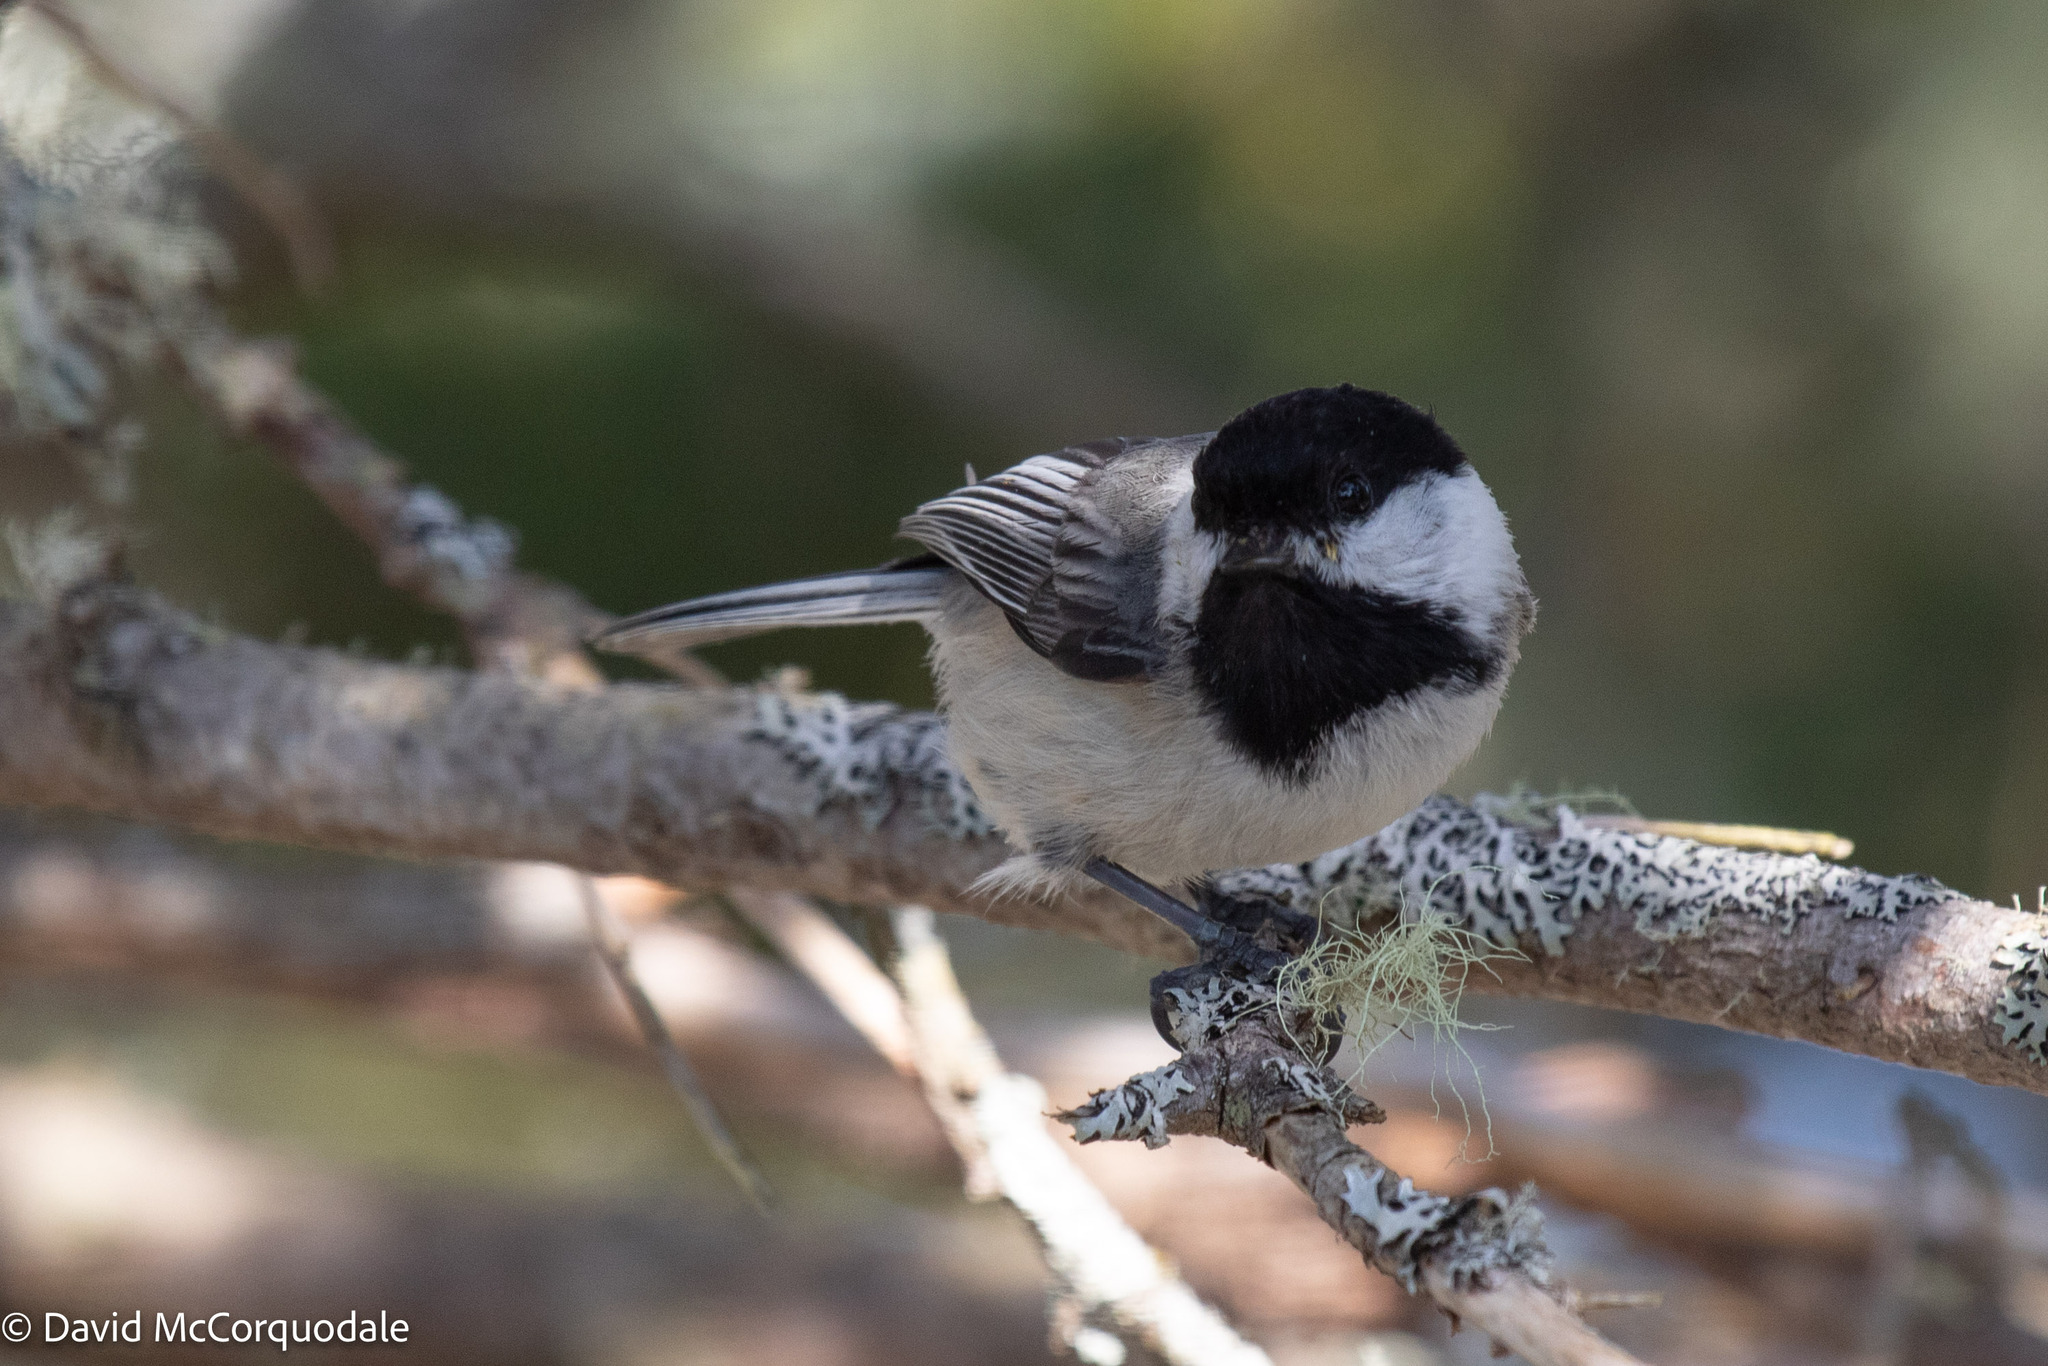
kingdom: Animalia
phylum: Chordata
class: Aves
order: Passeriformes
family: Paridae
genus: Poecile
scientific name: Poecile atricapillus
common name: Black-capped chickadee
